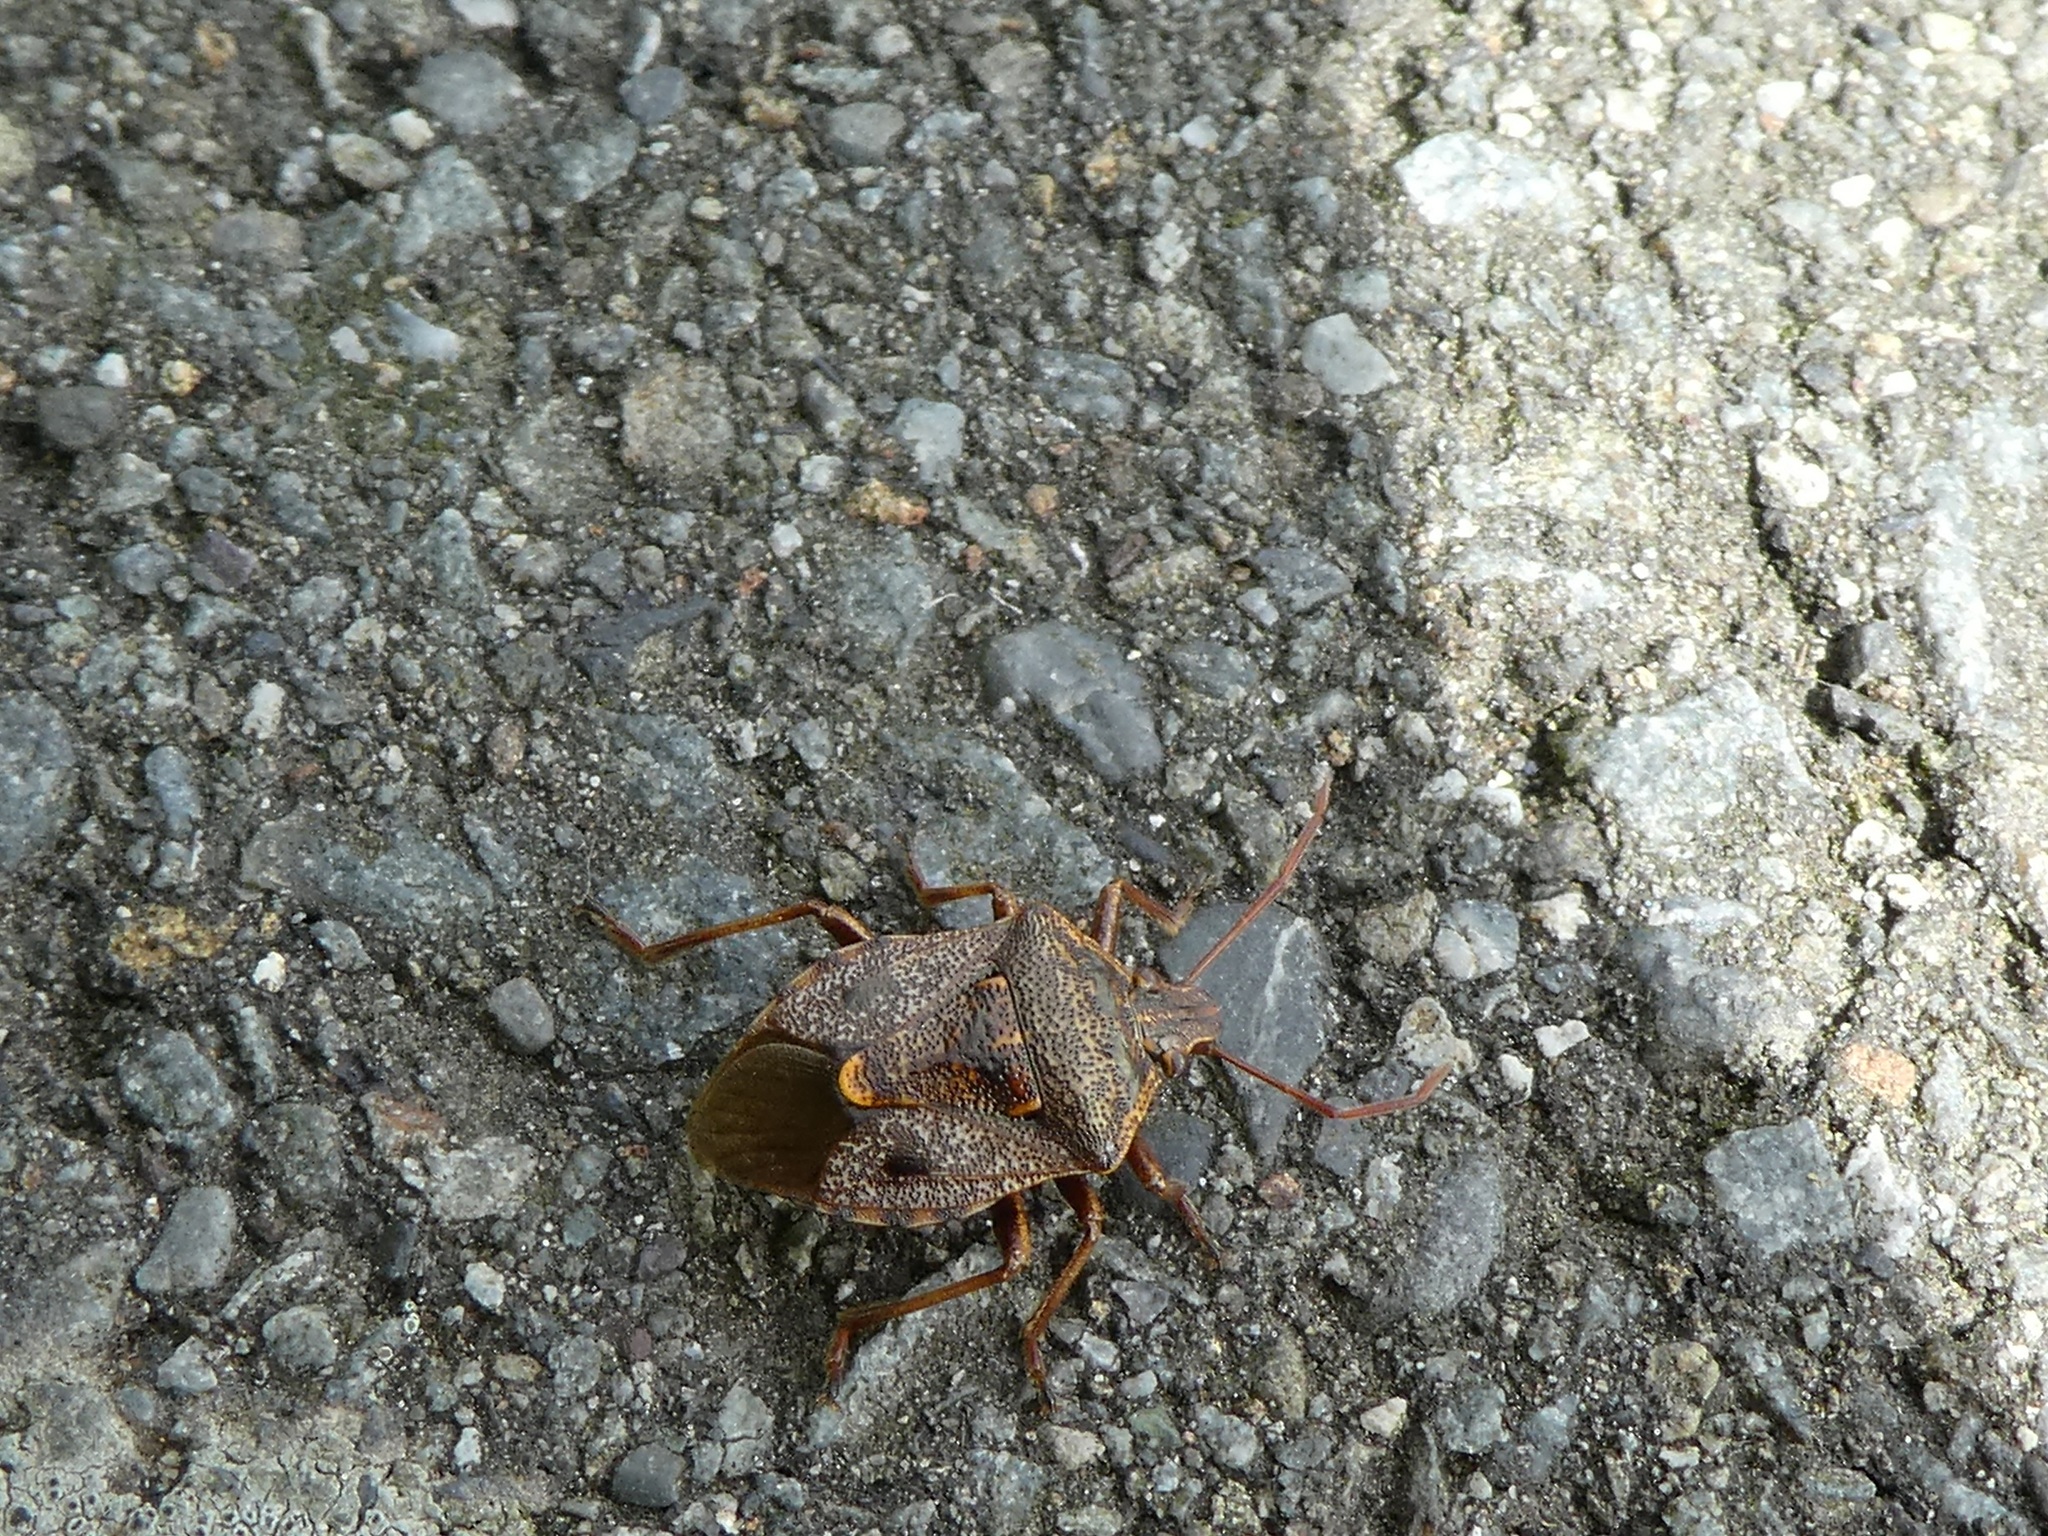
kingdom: Animalia
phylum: Arthropoda
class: Insecta
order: Hemiptera
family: Pentatomidae
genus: Cermatulus
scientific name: Cermatulus nasalis
